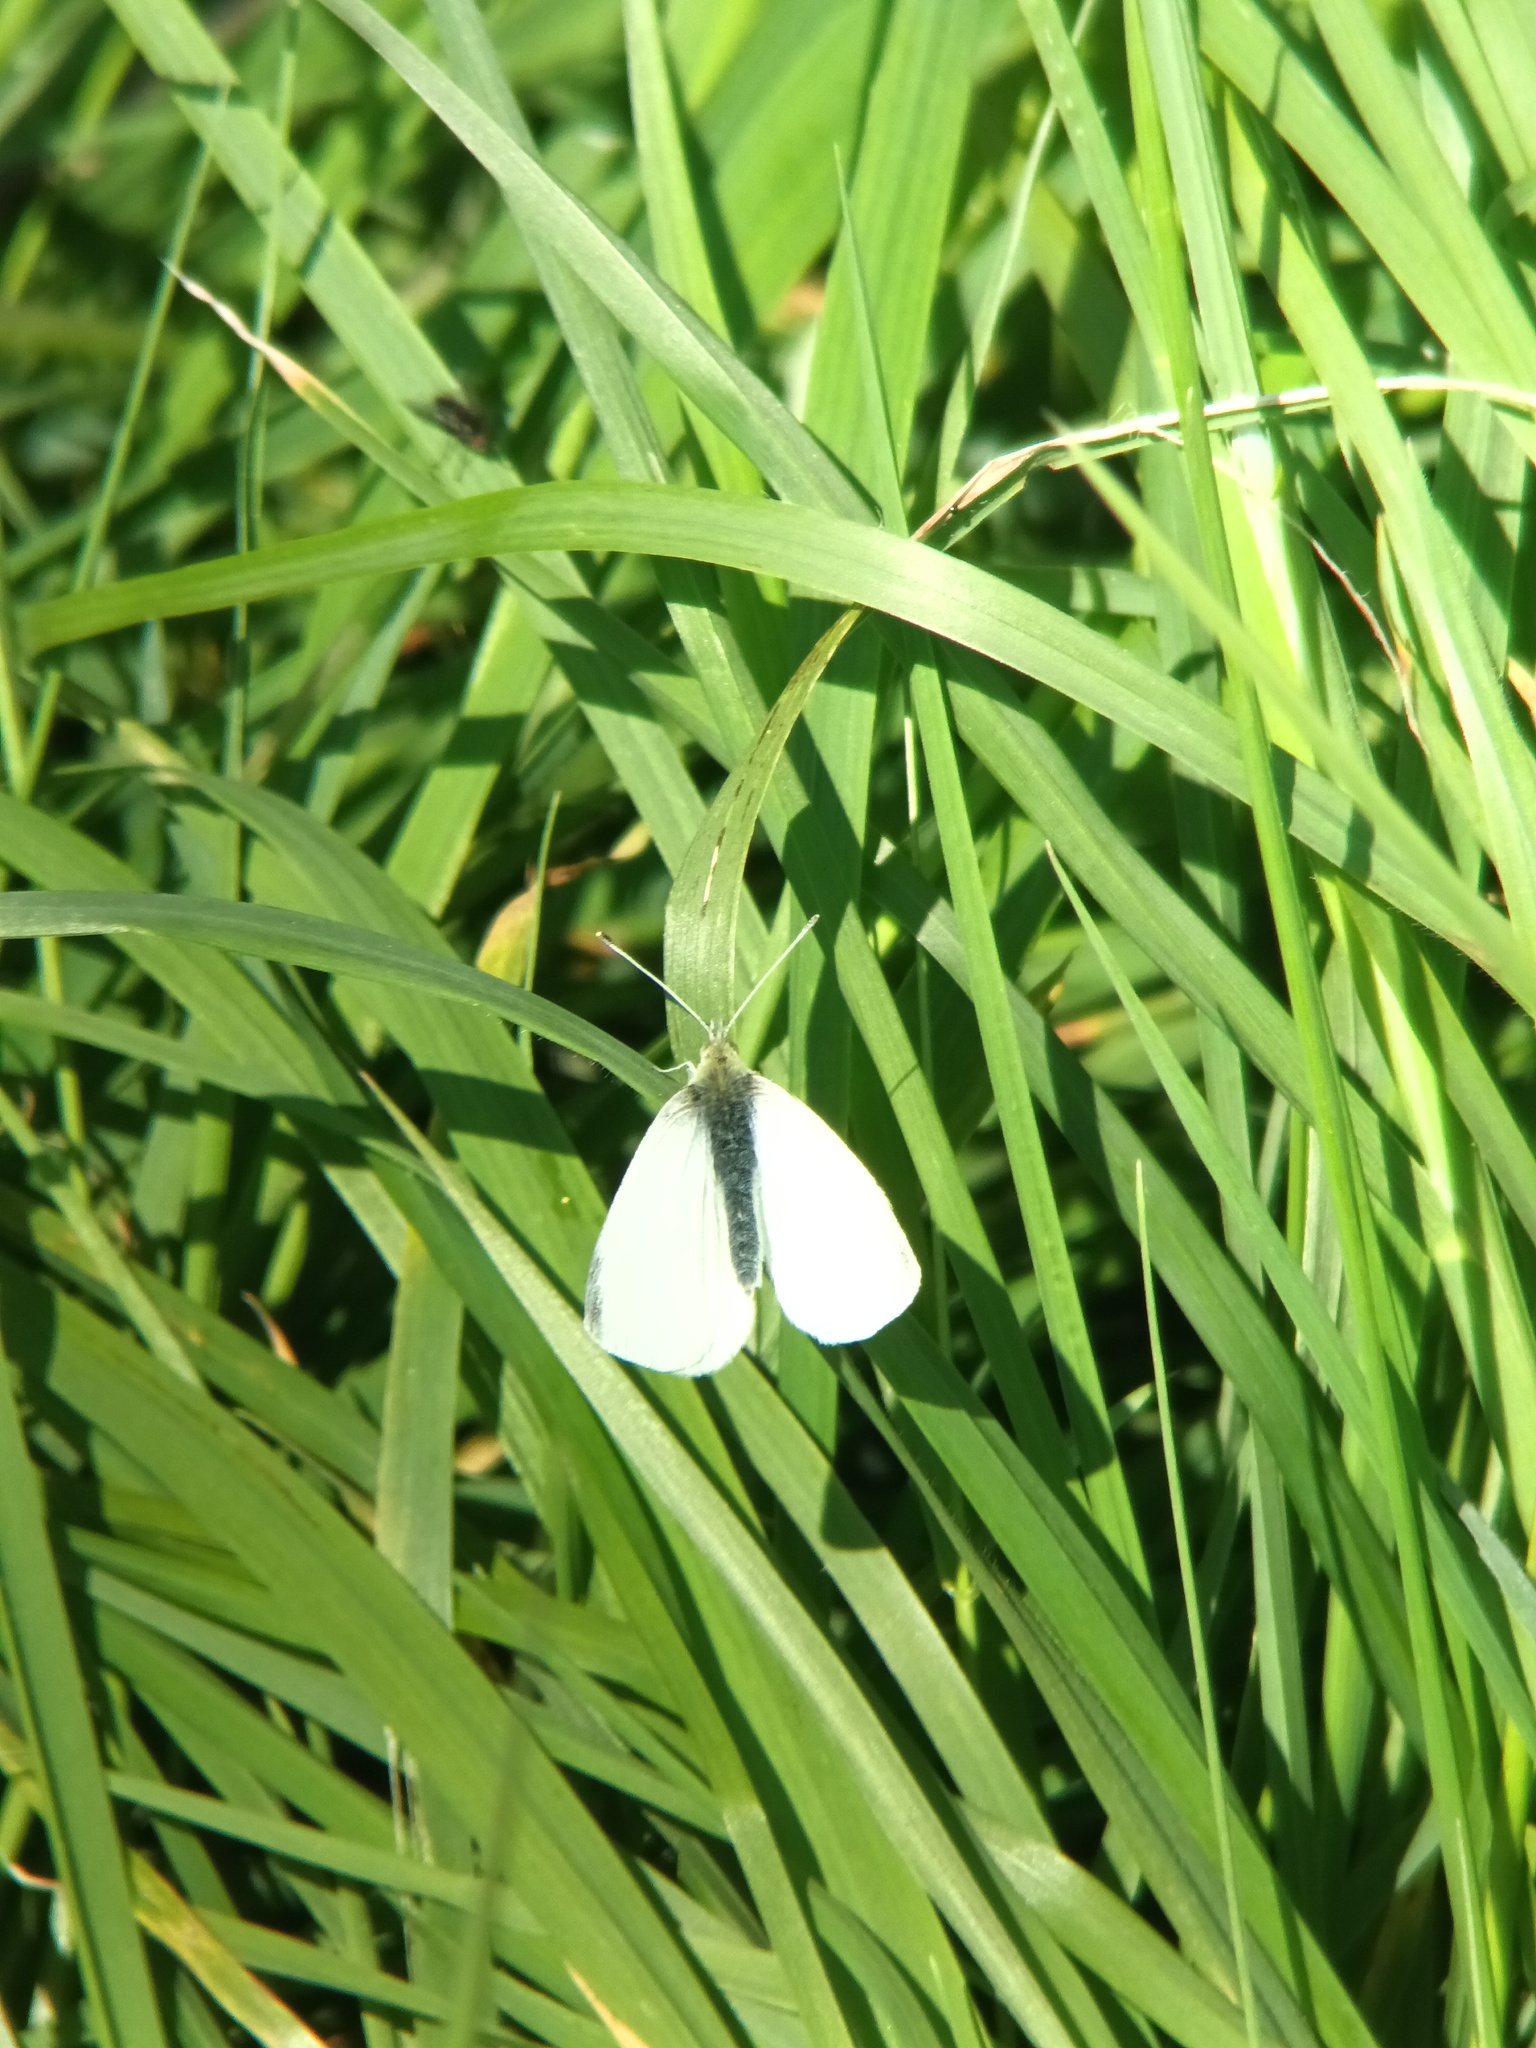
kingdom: Animalia
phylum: Arthropoda
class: Insecta
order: Lepidoptera
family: Pieridae
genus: Pieris
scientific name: Pieris rapae
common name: Small white
